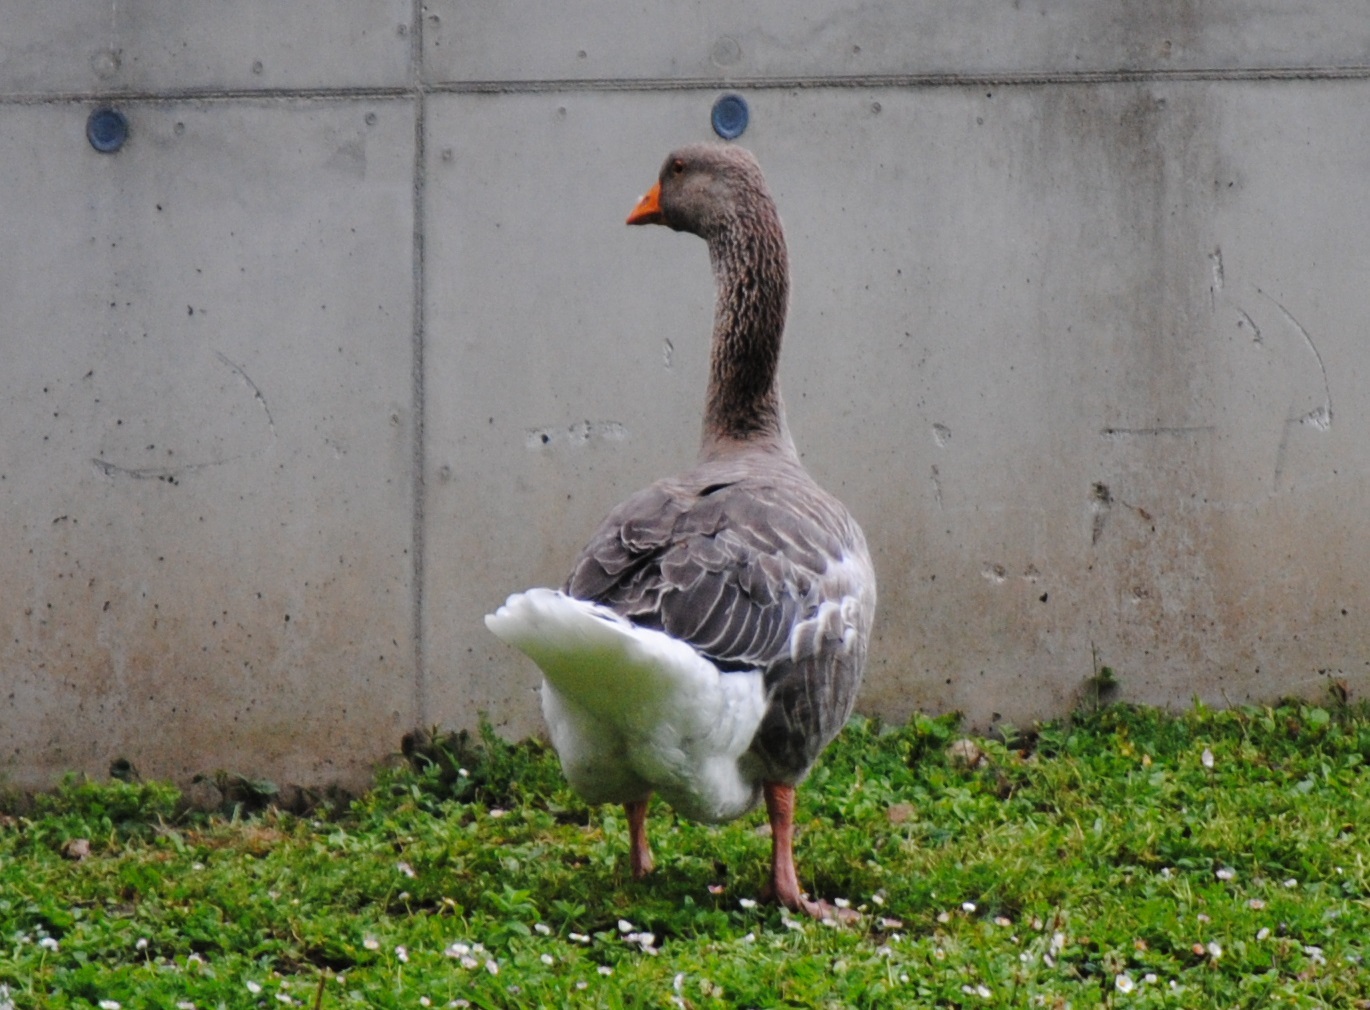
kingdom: Animalia
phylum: Chordata
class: Aves
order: Anseriformes
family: Anatidae
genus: Anser
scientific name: Anser anser
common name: Greylag goose
